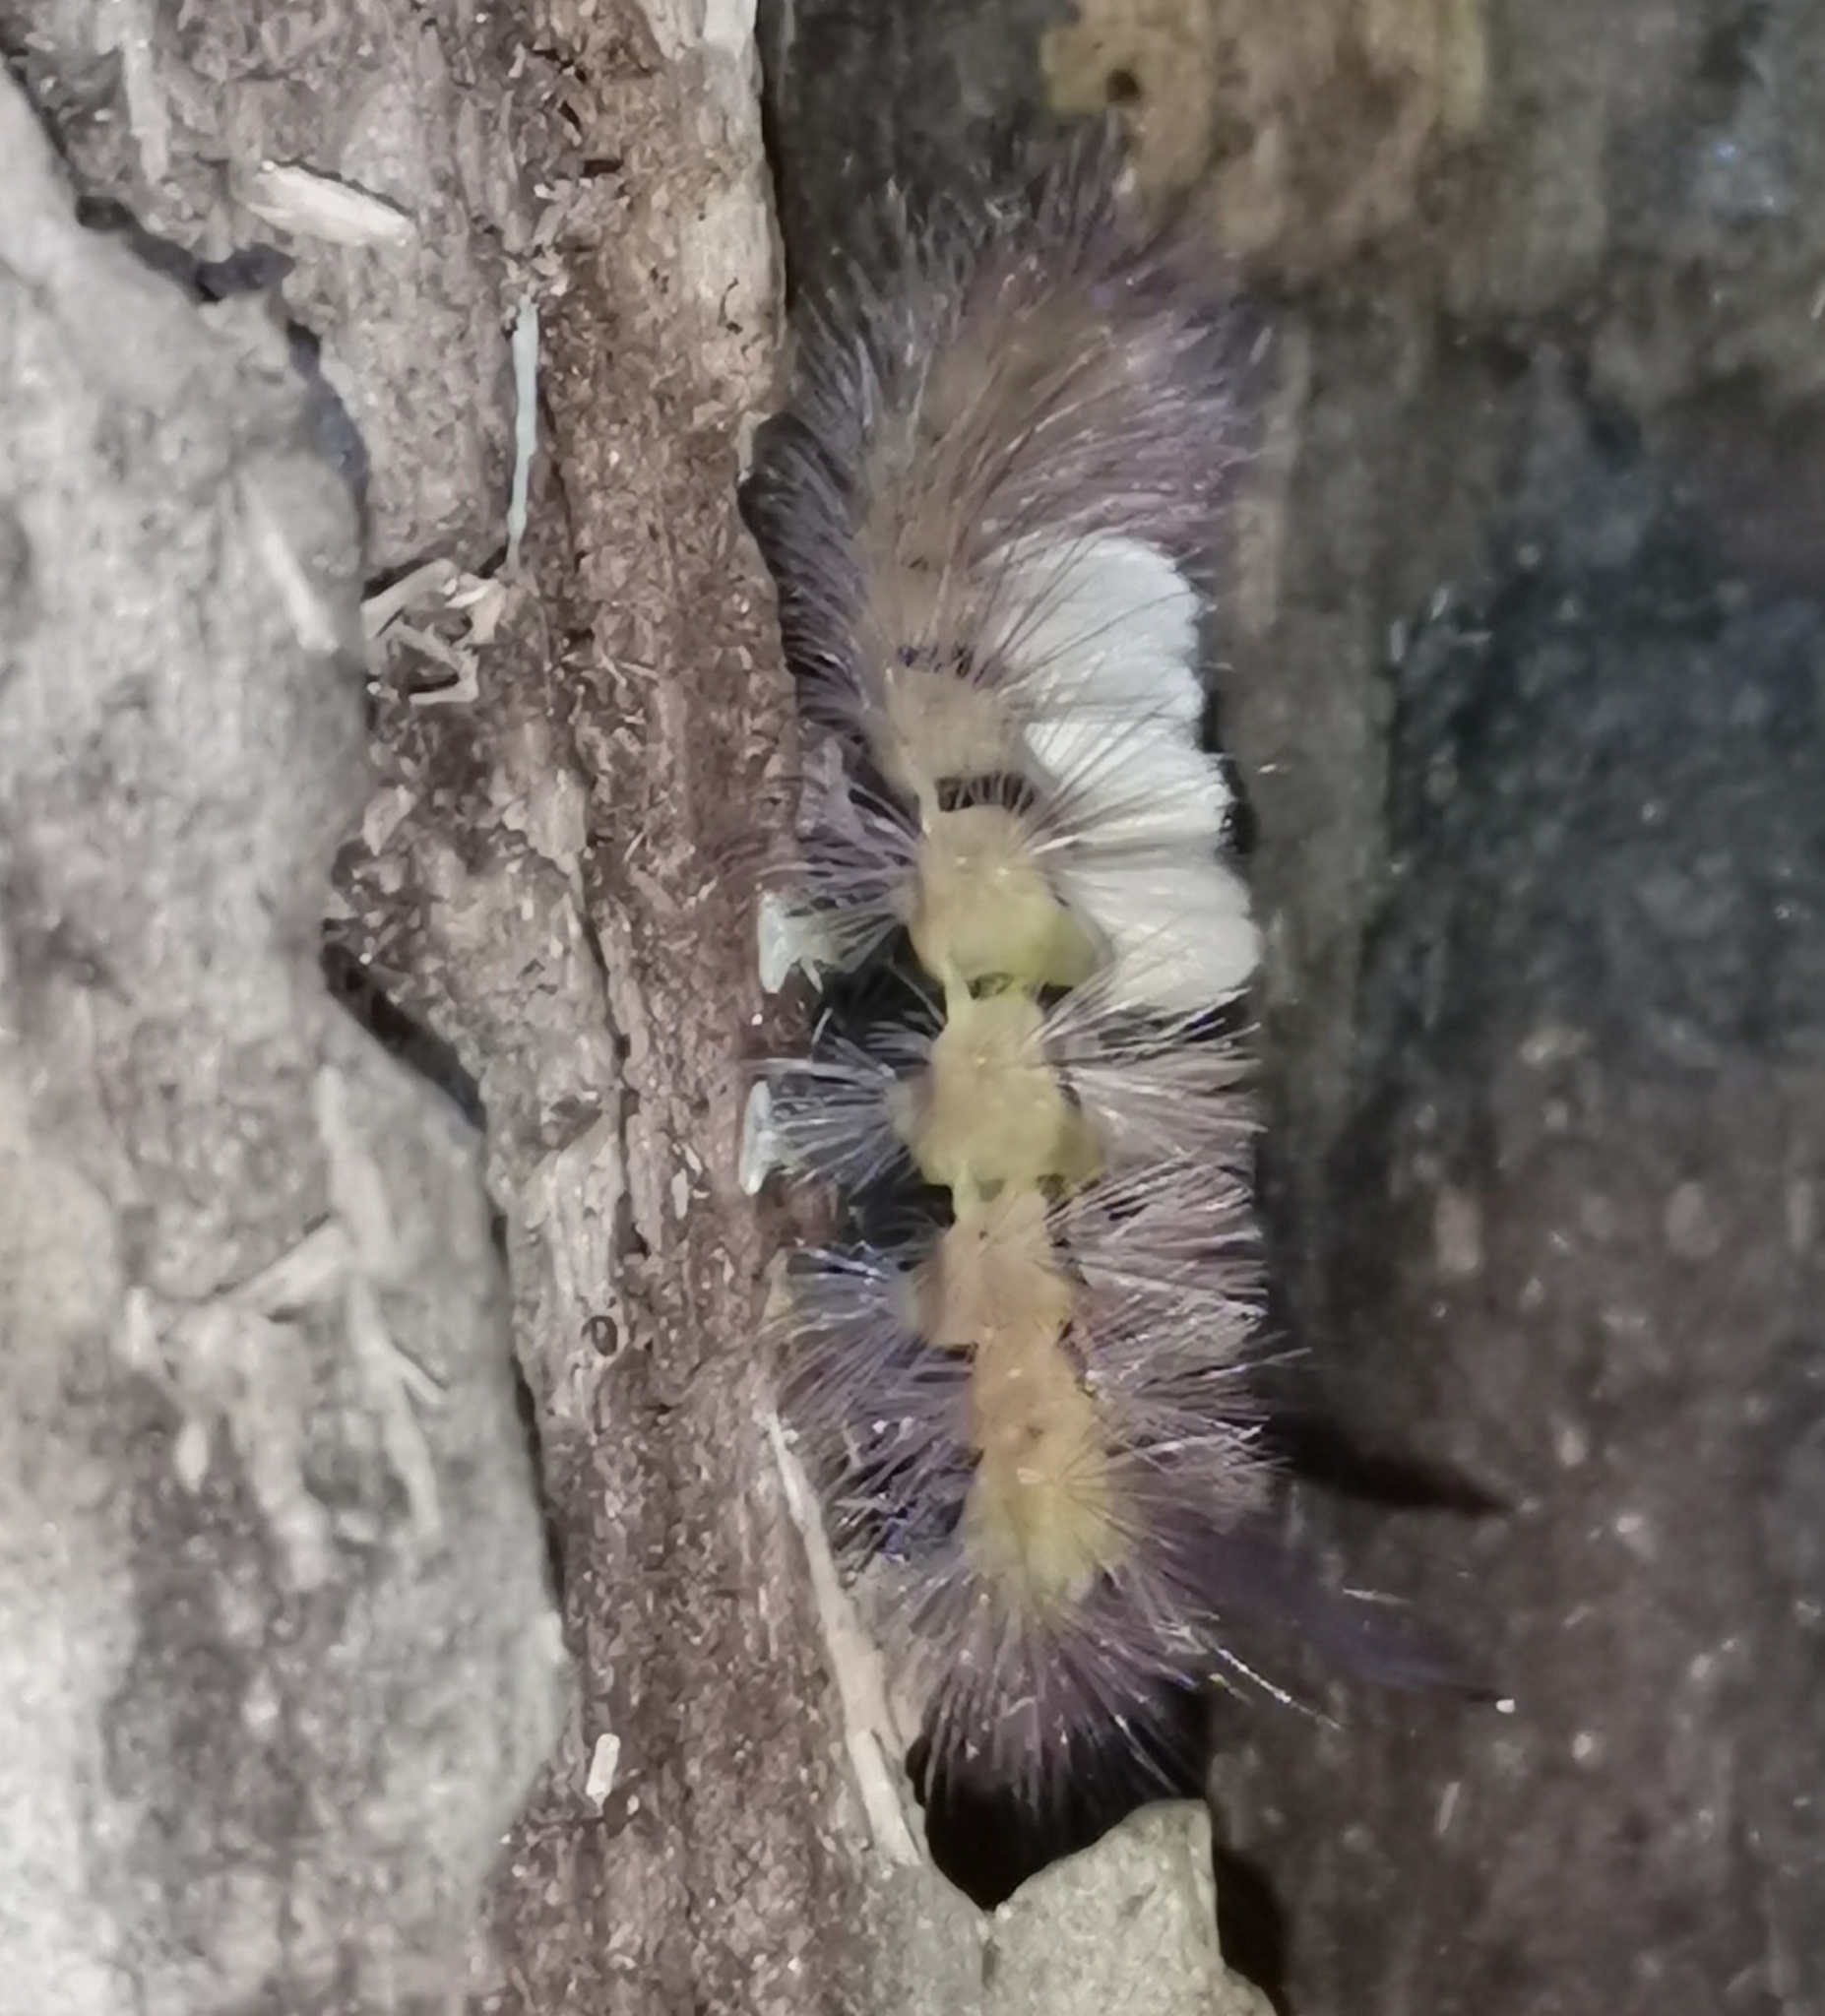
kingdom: Animalia
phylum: Arthropoda
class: Insecta
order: Lepidoptera
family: Erebidae
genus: Calliteara
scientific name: Calliteara pudibunda
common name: Pale tussock
